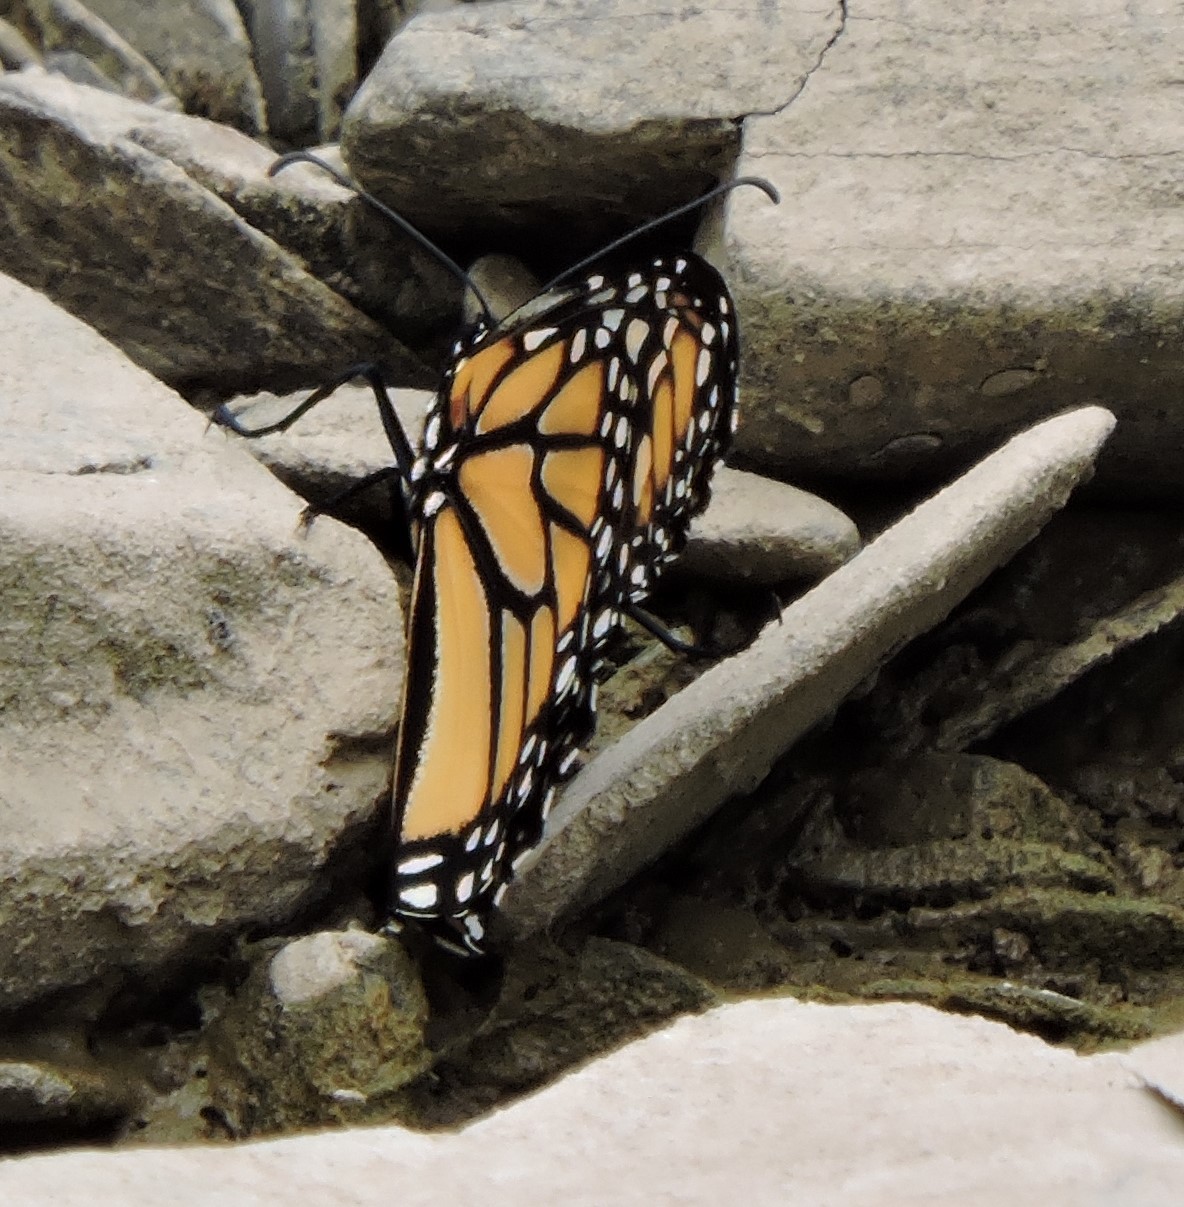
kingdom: Animalia
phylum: Arthropoda
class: Insecta
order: Lepidoptera
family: Nymphalidae
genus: Danaus
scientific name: Danaus plexippus
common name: Monarch
